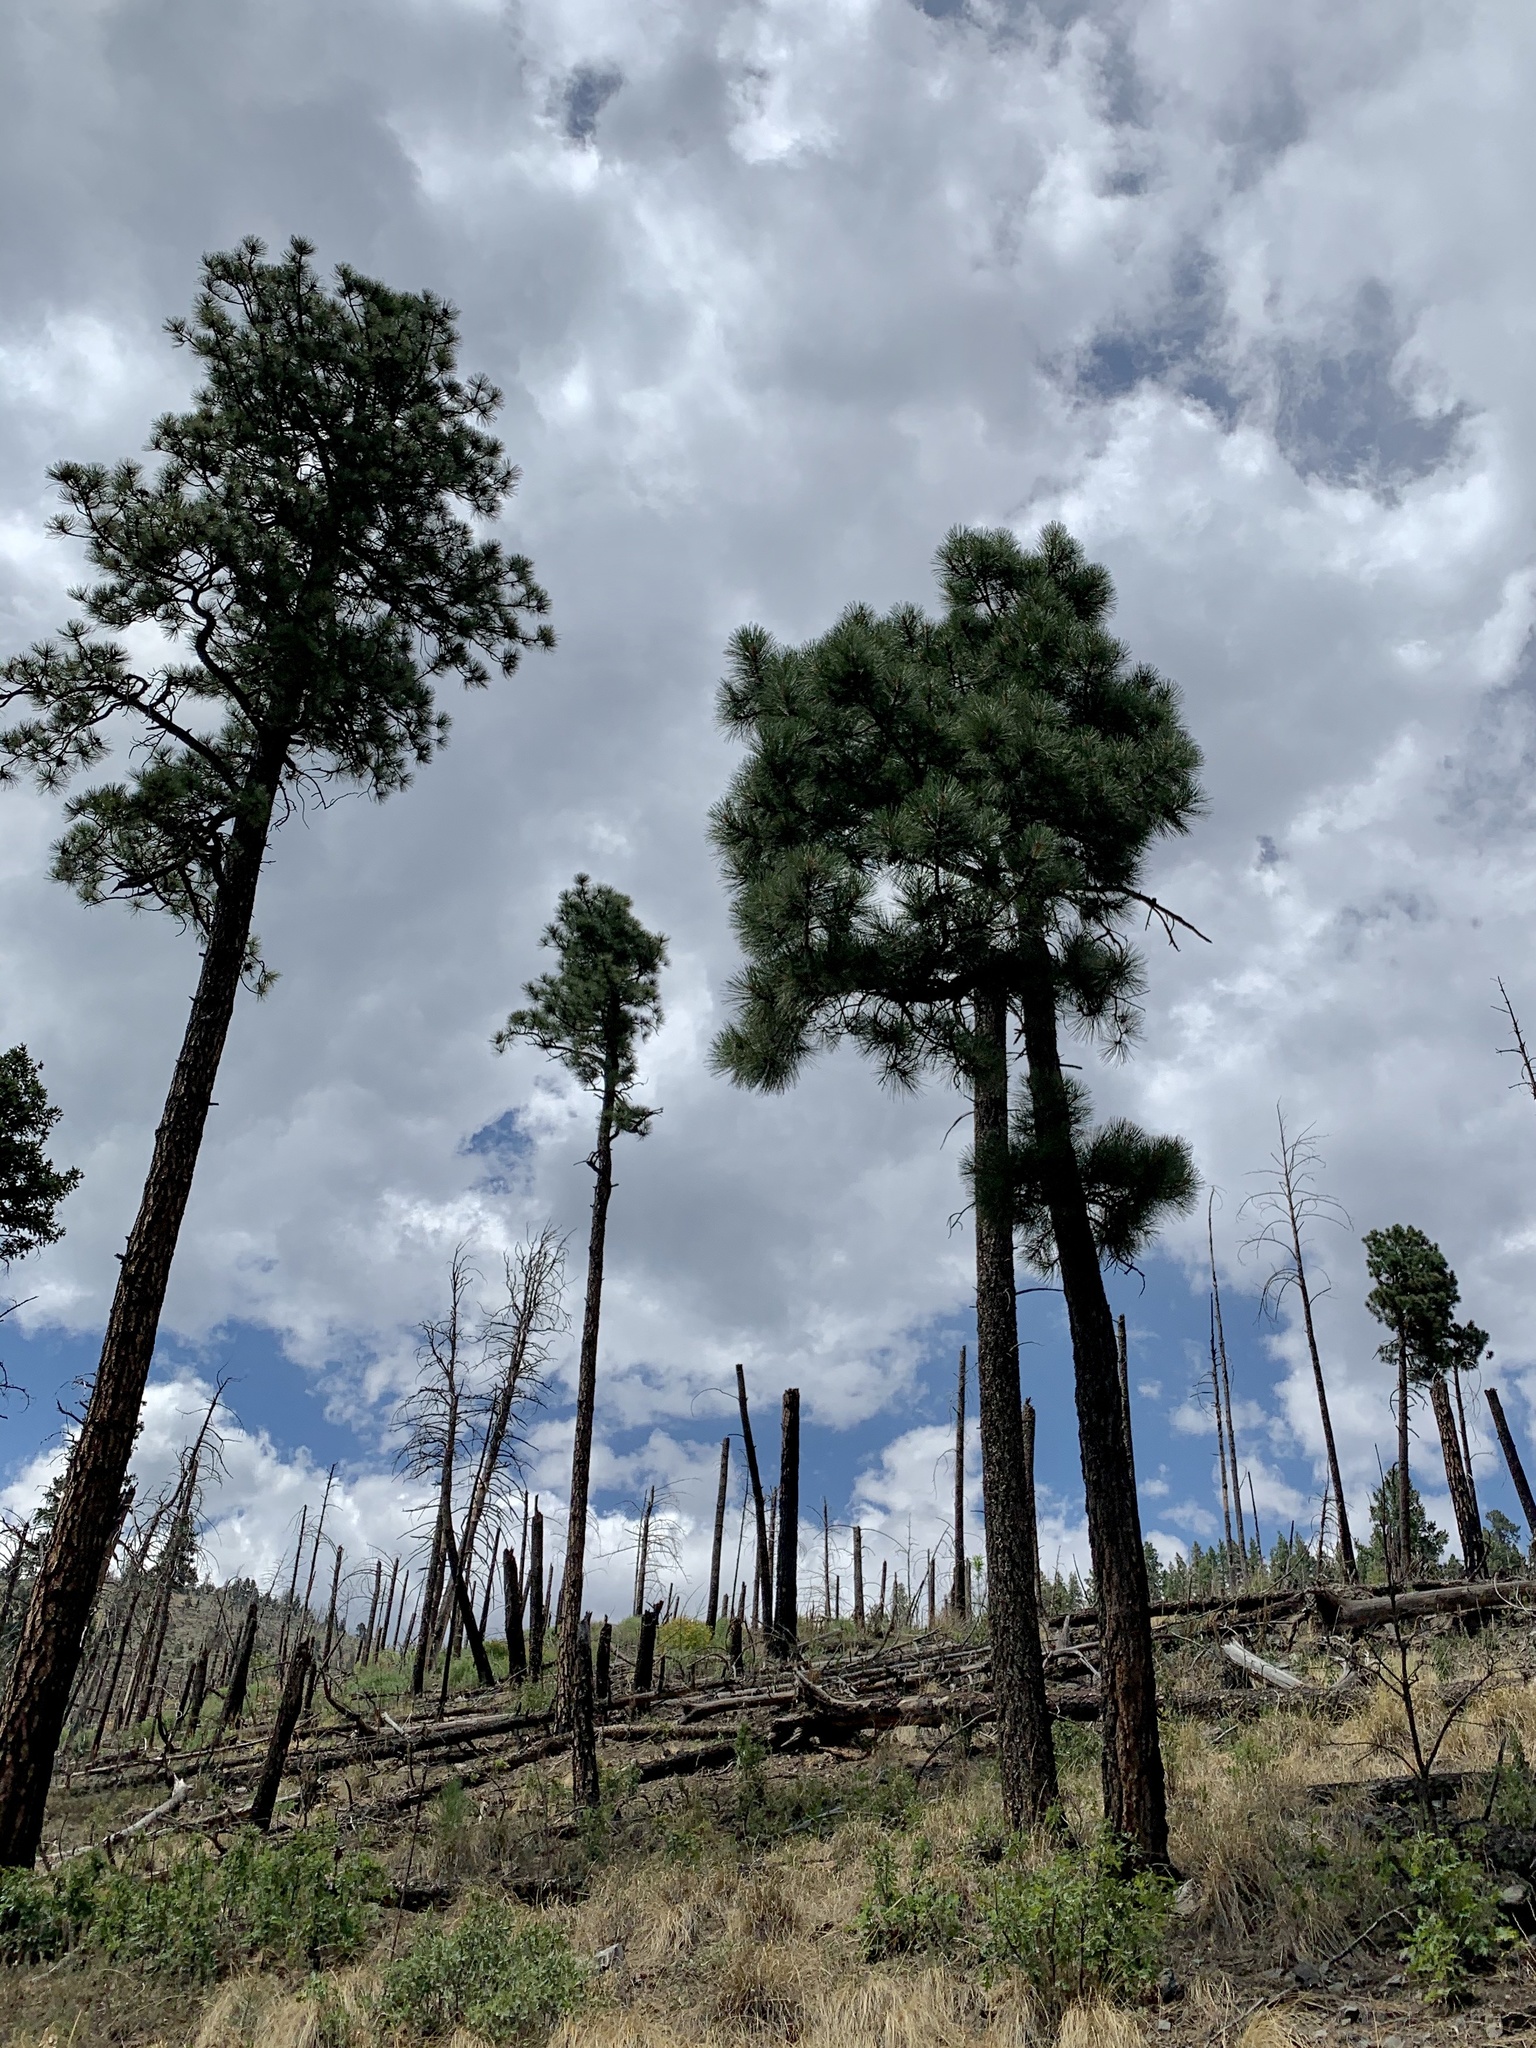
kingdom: Plantae
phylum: Tracheophyta
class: Pinopsida
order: Pinales
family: Pinaceae
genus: Pinus
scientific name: Pinus ponderosa
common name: Western yellow-pine
